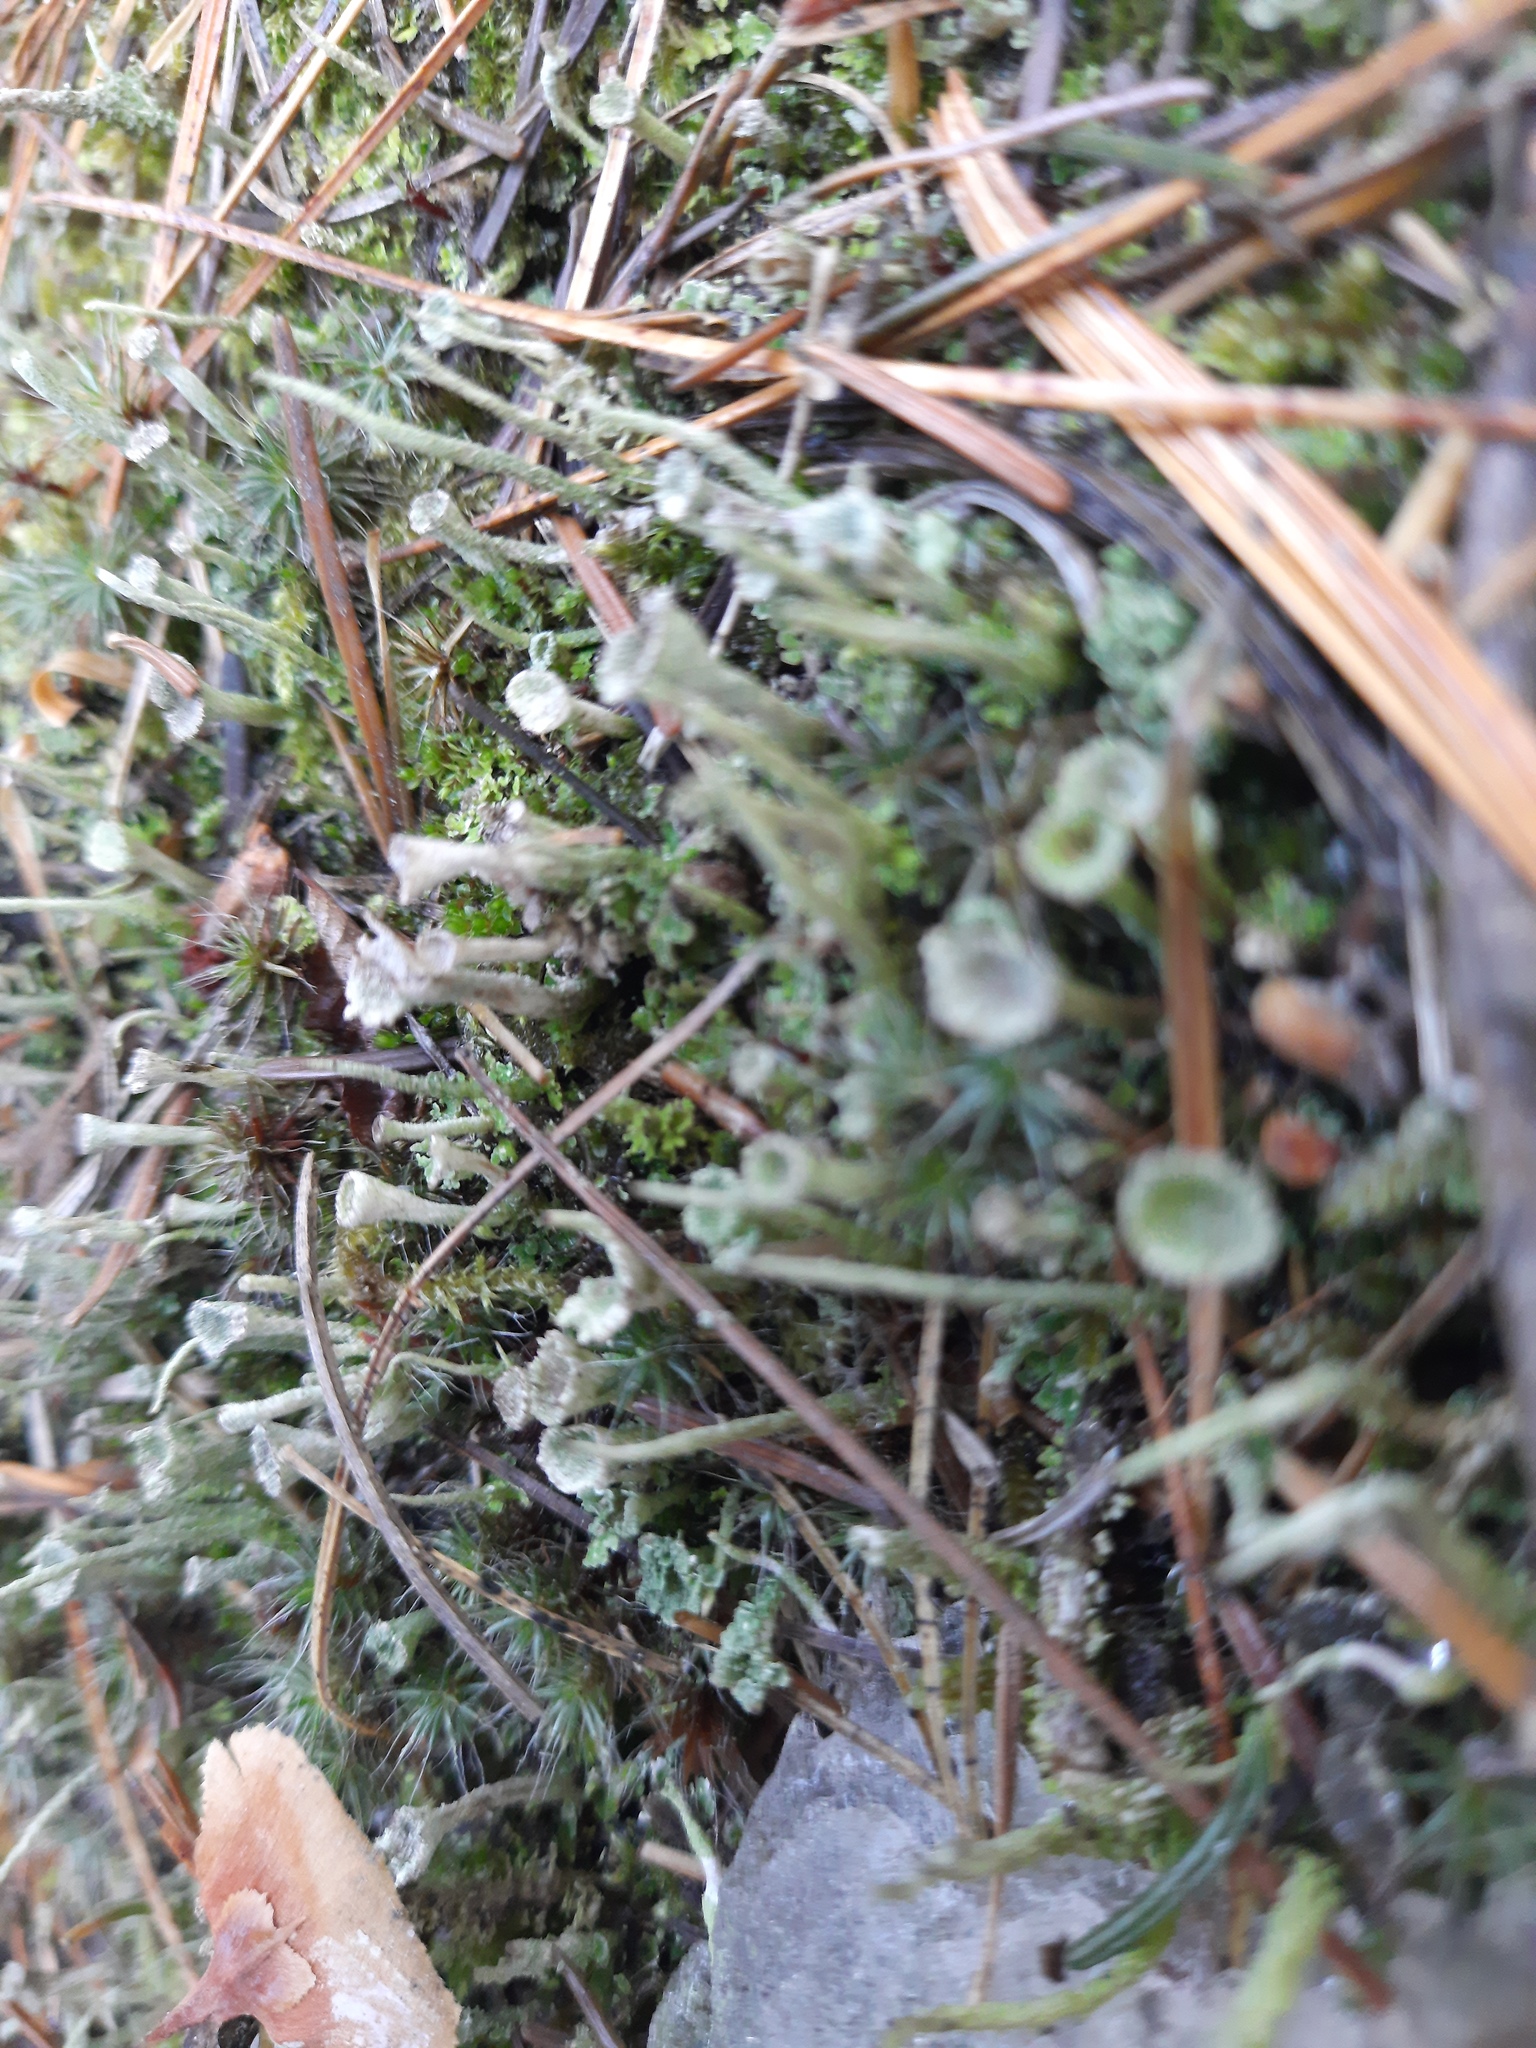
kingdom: Fungi
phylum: Ascomycota
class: Lecanoromycetes
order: Lecanorales
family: Cladoniaceae
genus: Cladonia
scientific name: Cladonia fimbriata
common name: Powdered trumpet lichen
